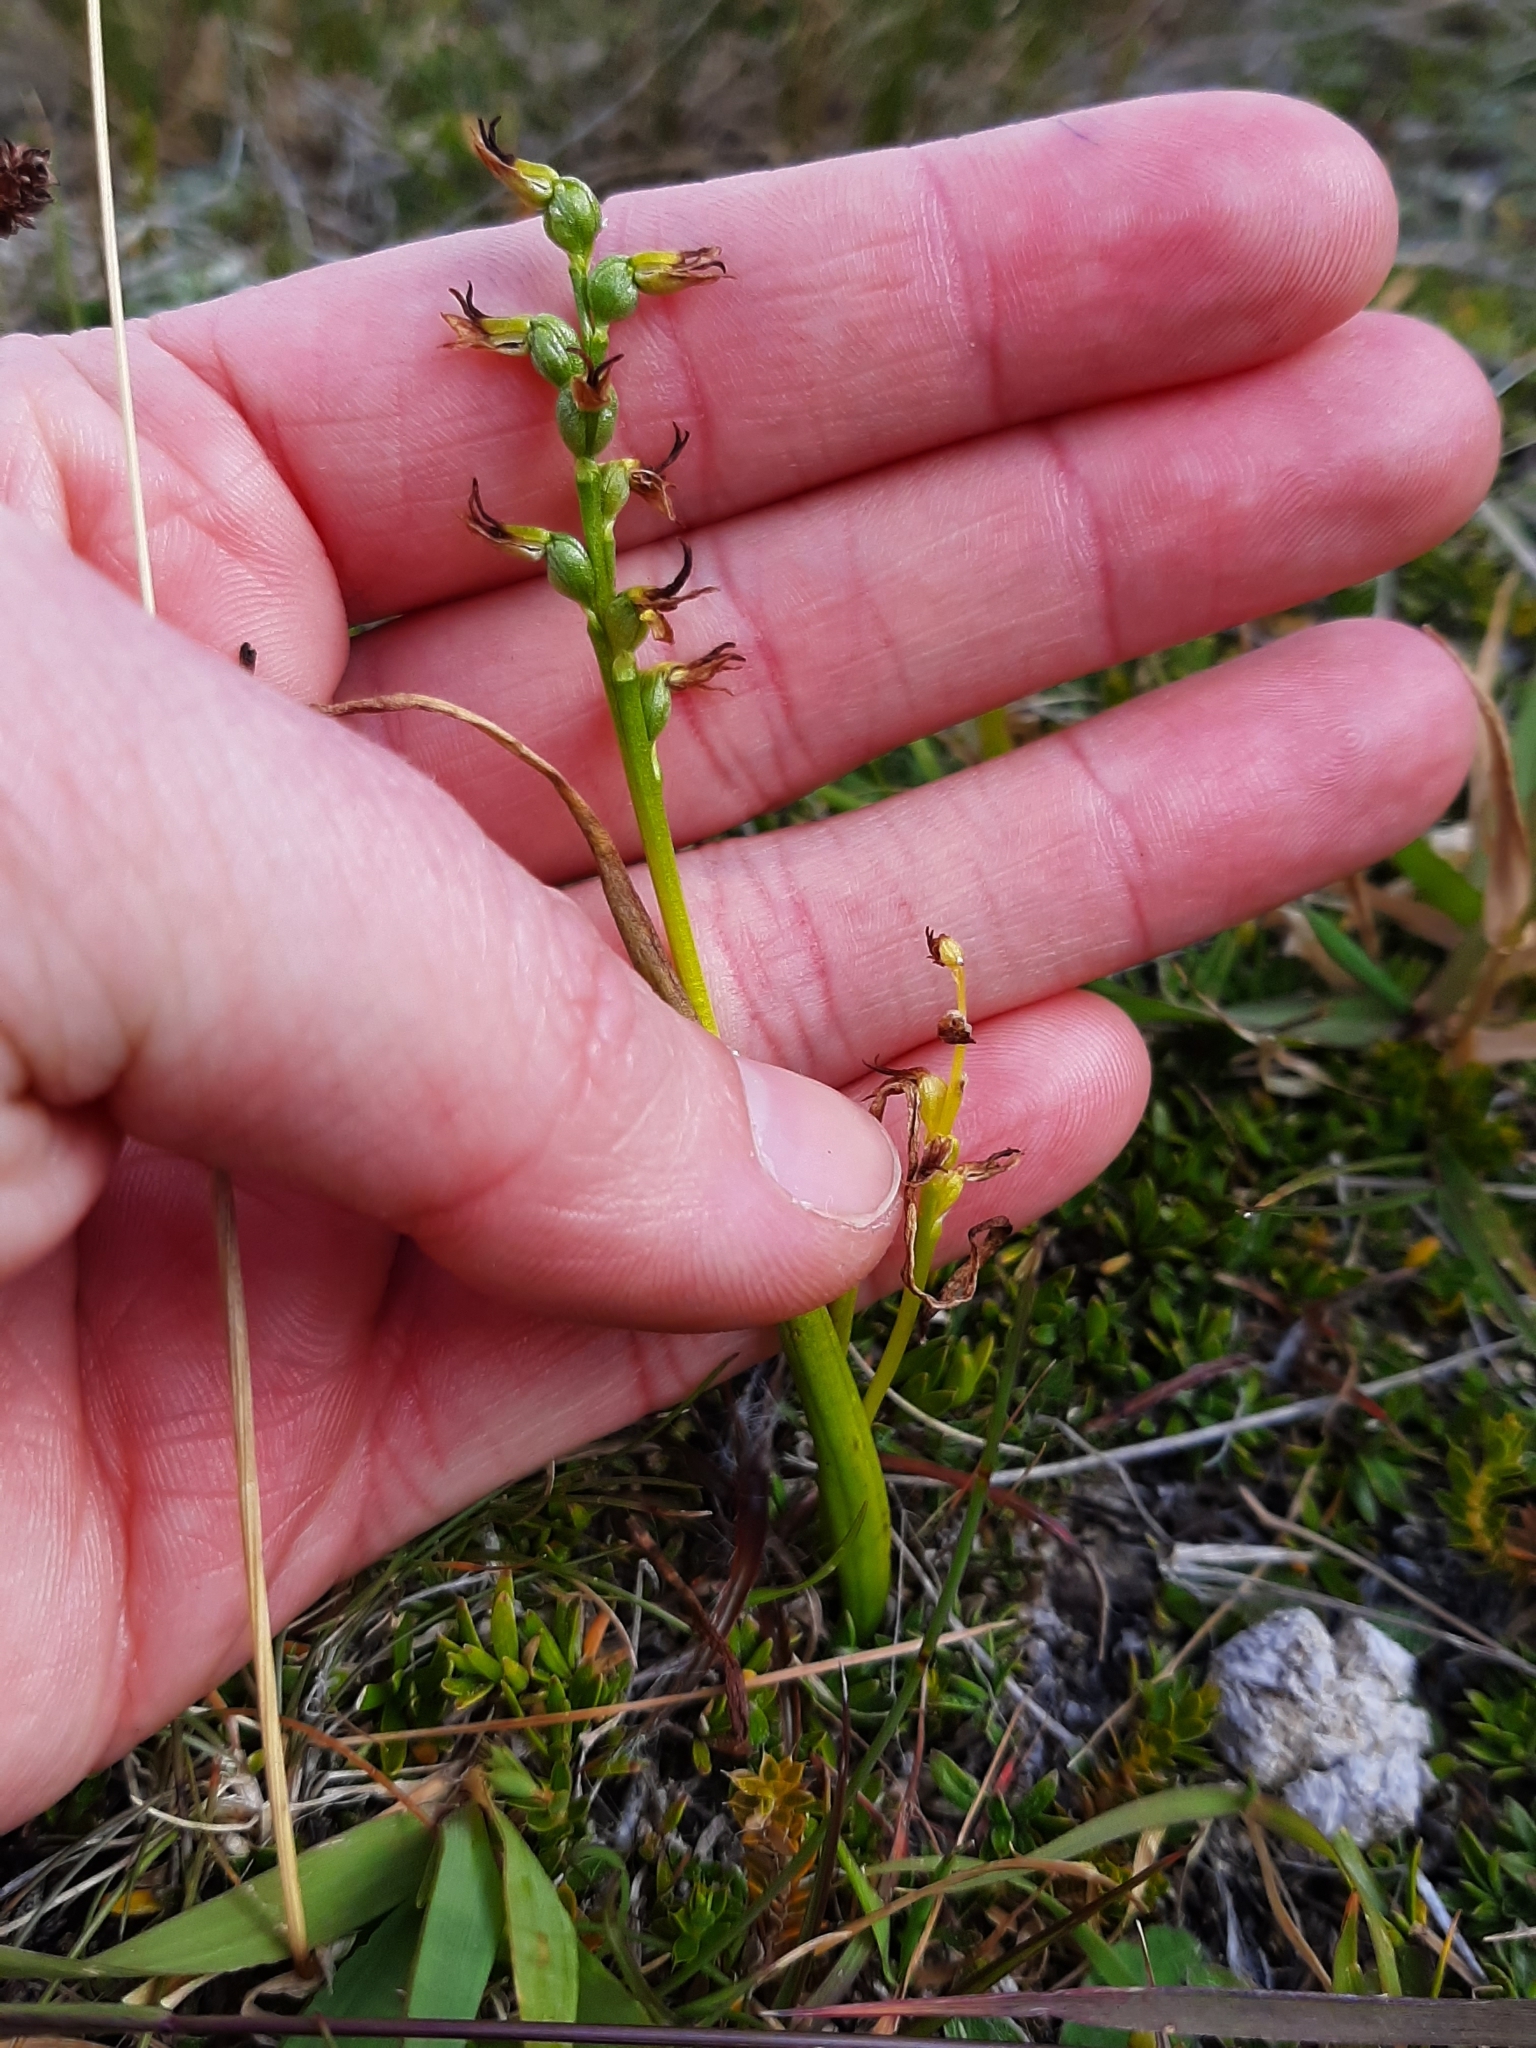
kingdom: Plantae
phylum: Tracheophyta
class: Liliopsida
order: Asparagales
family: Orchidaceae
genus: Prasophyllum
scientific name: Prasophyllum colensoi
